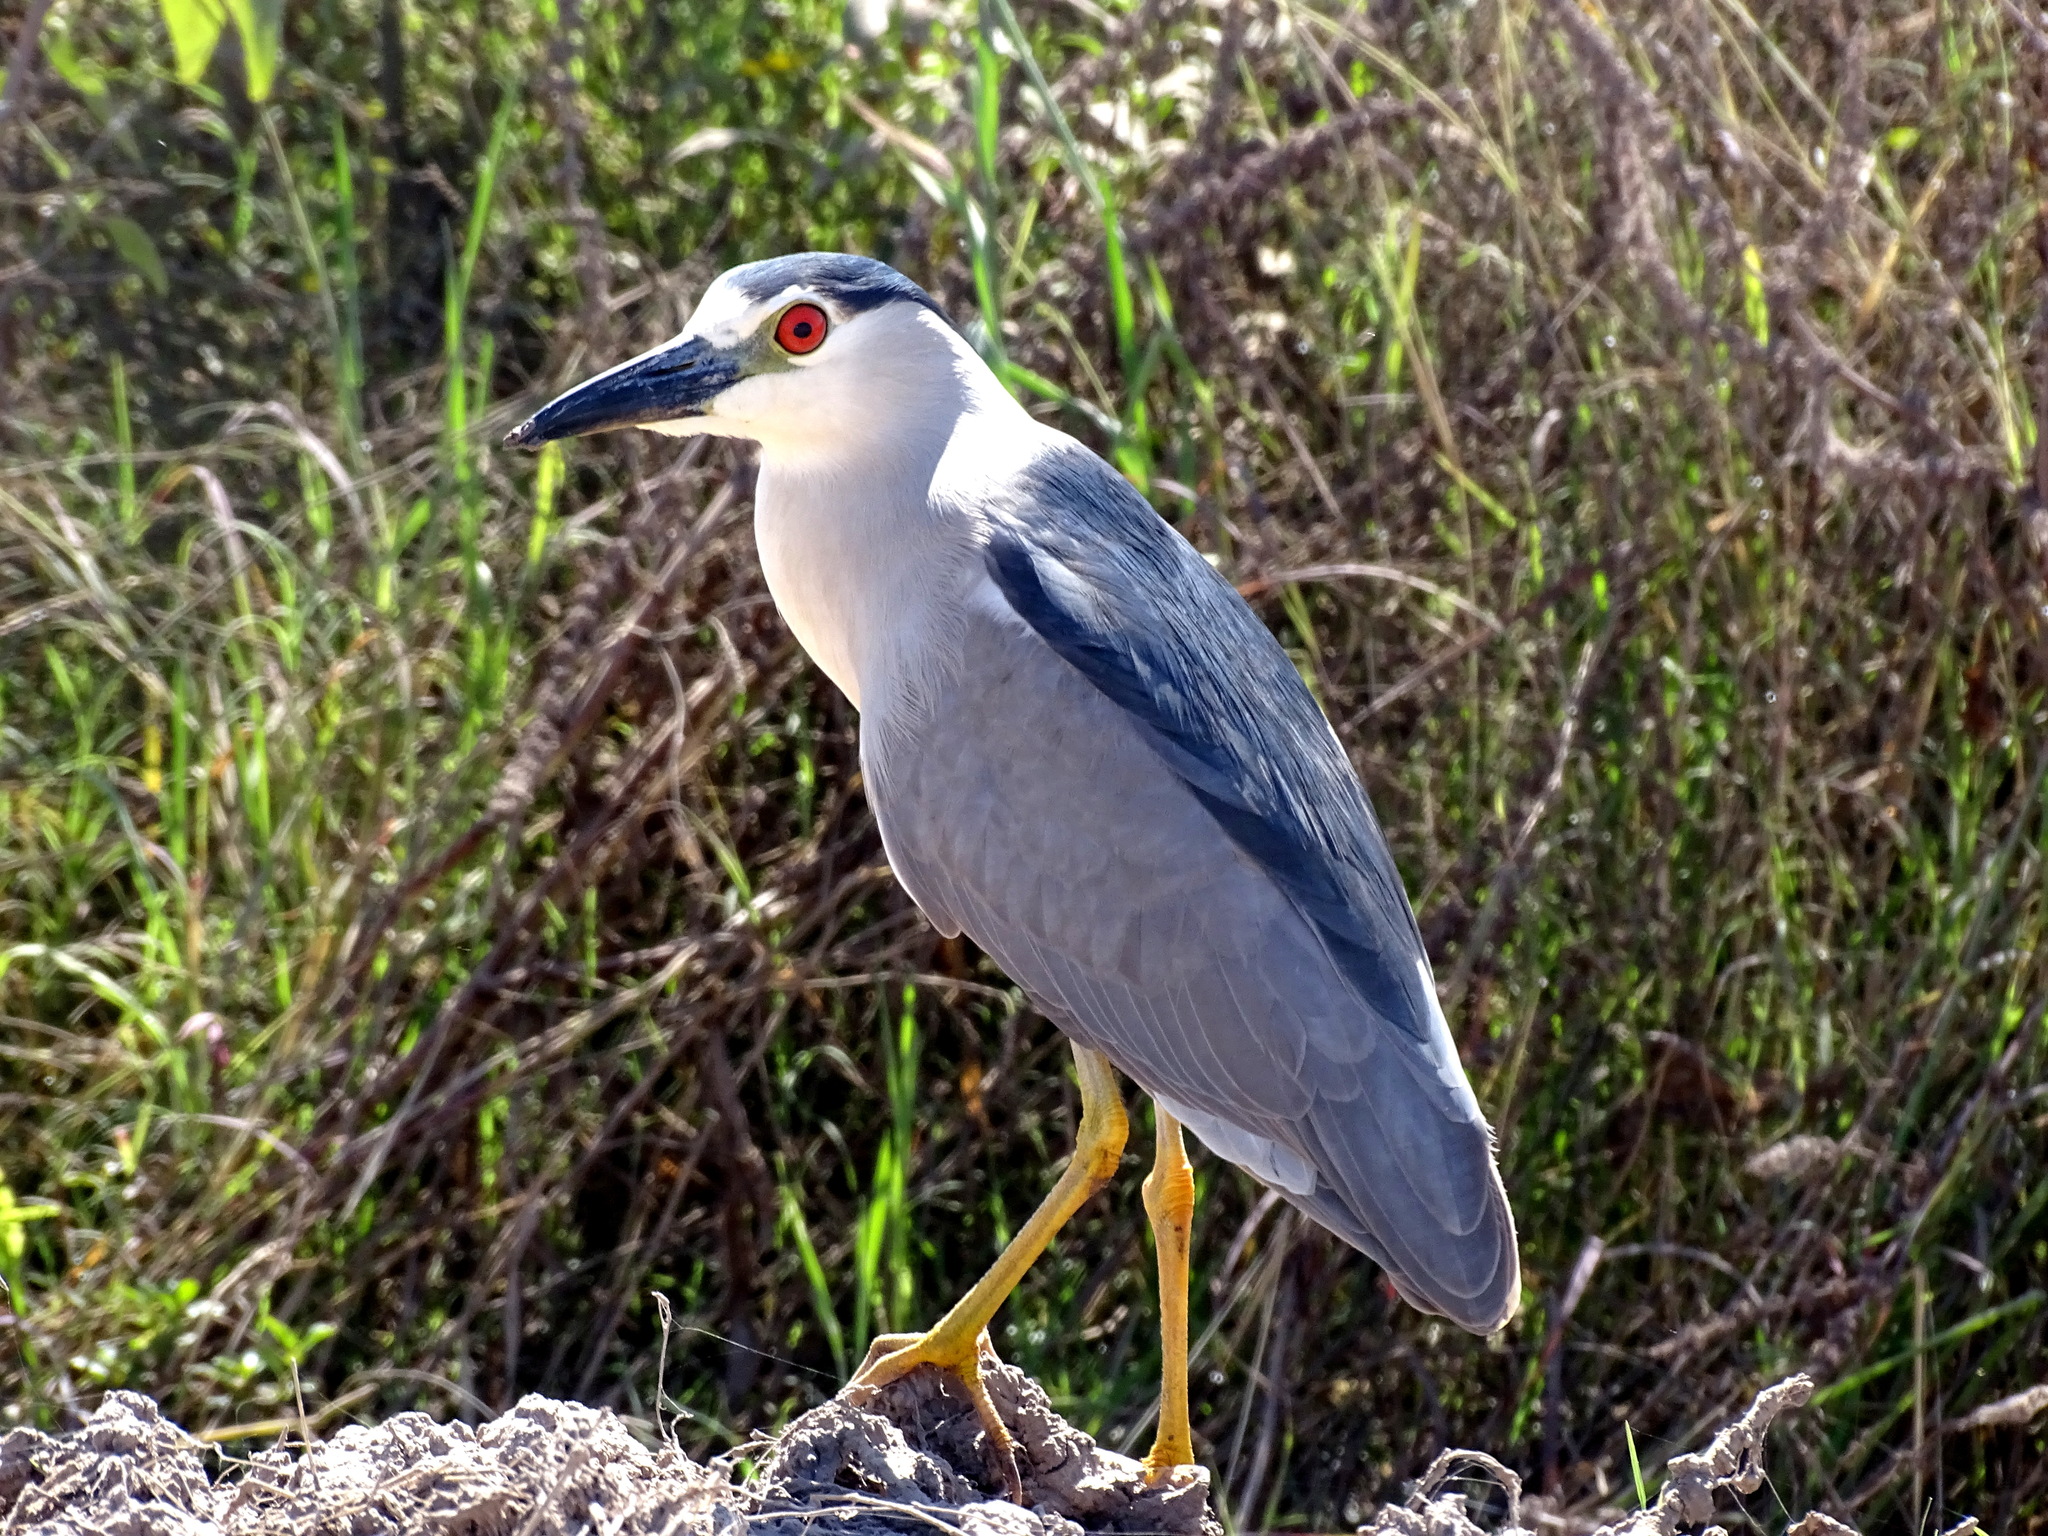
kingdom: Animalia
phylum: Chordata
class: Aves
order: Pelecaniformes
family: Ardeidae
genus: Nycticorax
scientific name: Nycticorax nycticorax
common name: Black-crowned night heron
